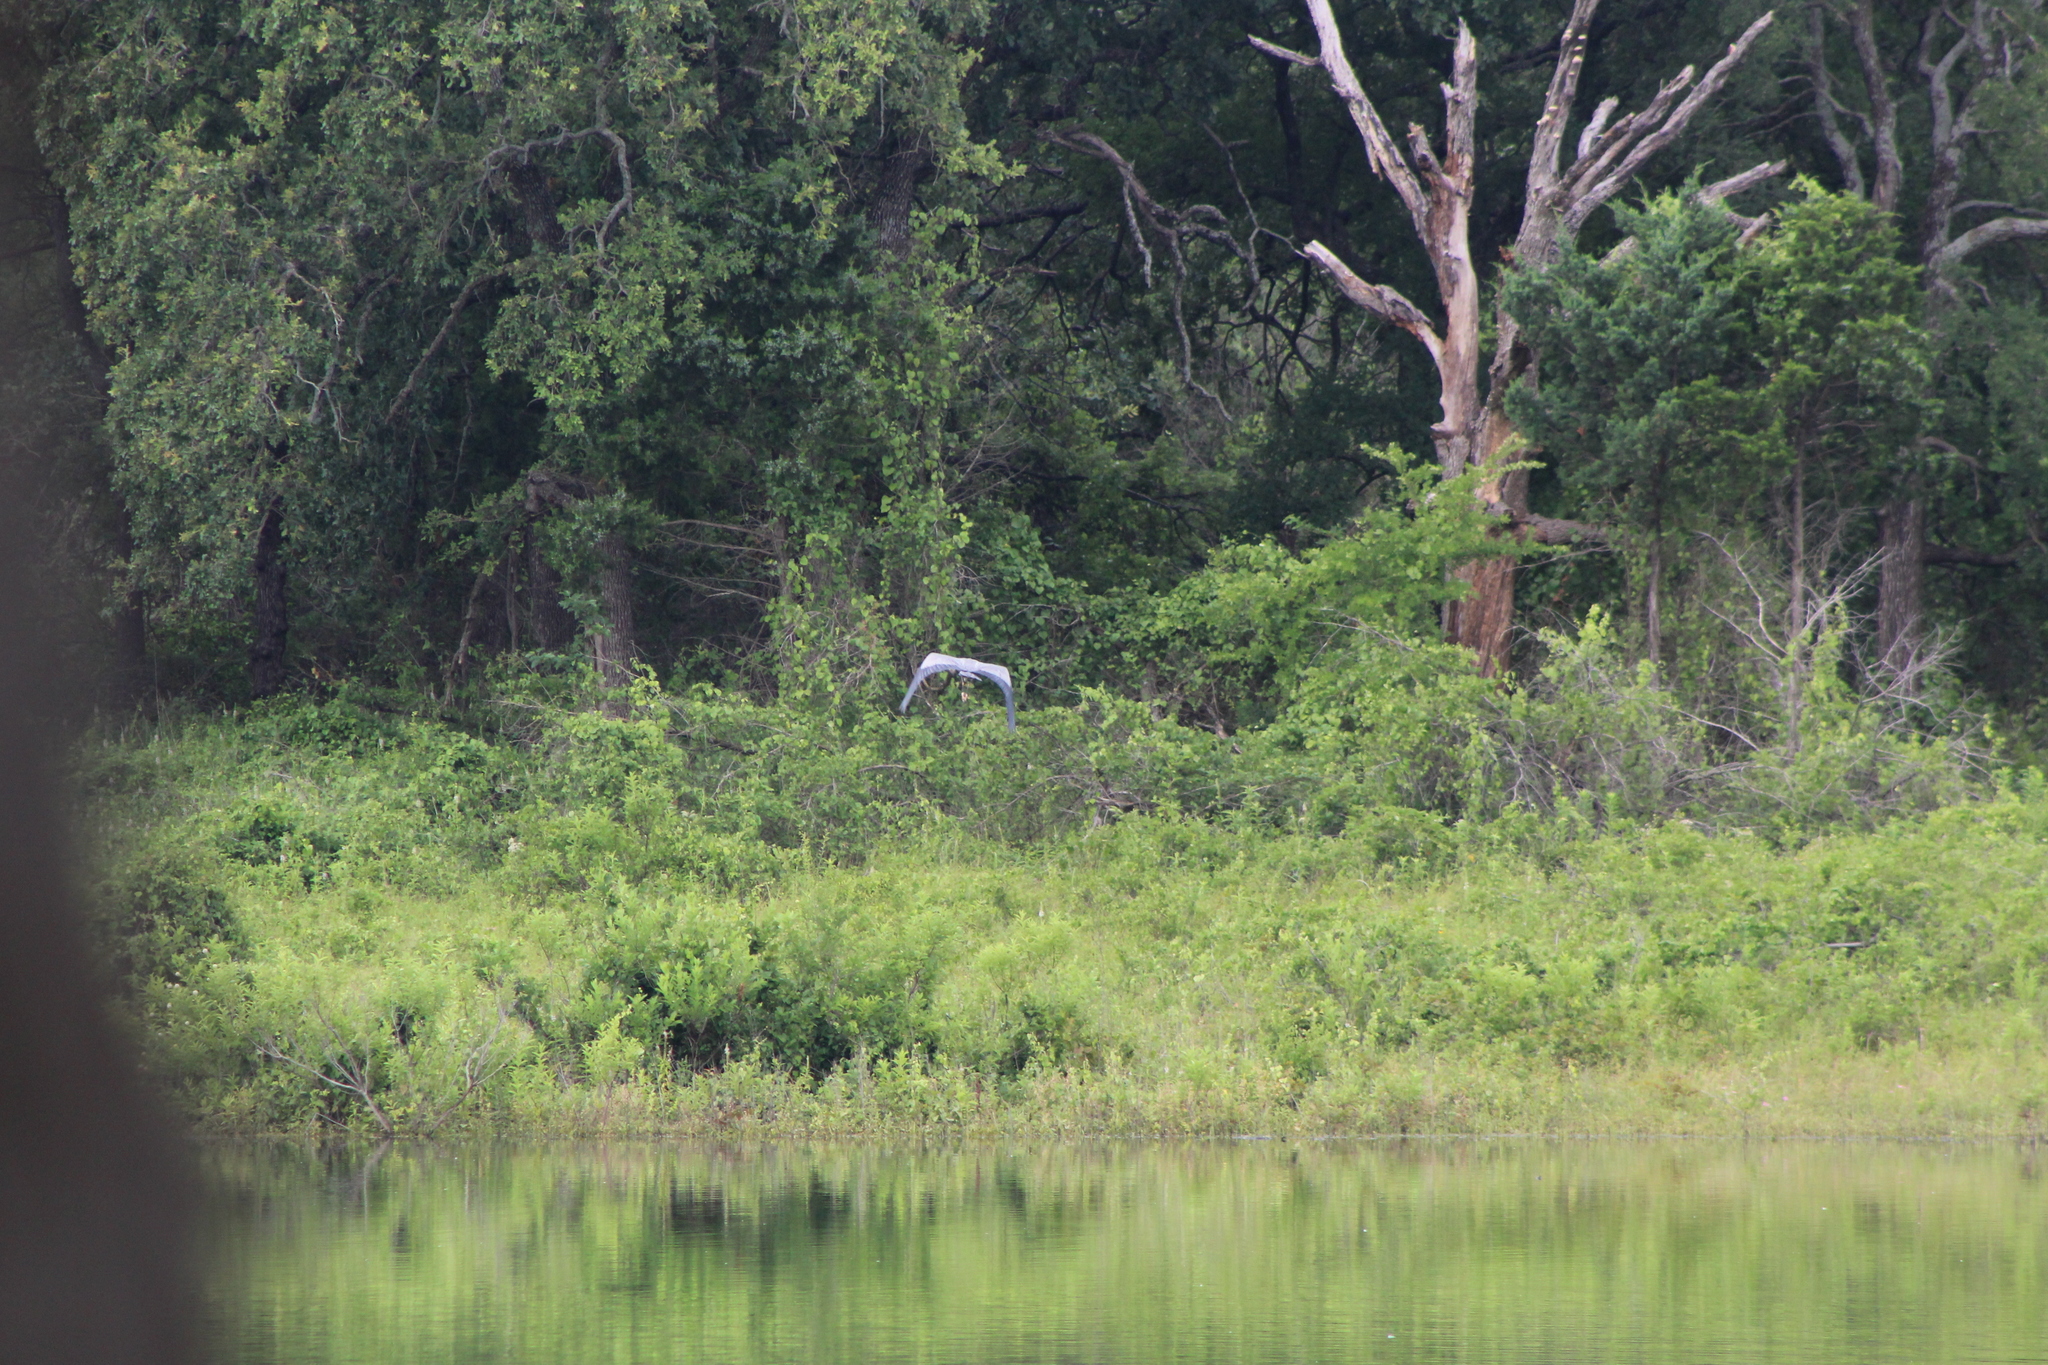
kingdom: Animalia
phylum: Chordata
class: Aves
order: Pelecaniformes
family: Ardeidae
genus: Ardea
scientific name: Ardea herodias
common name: Great blue heron
